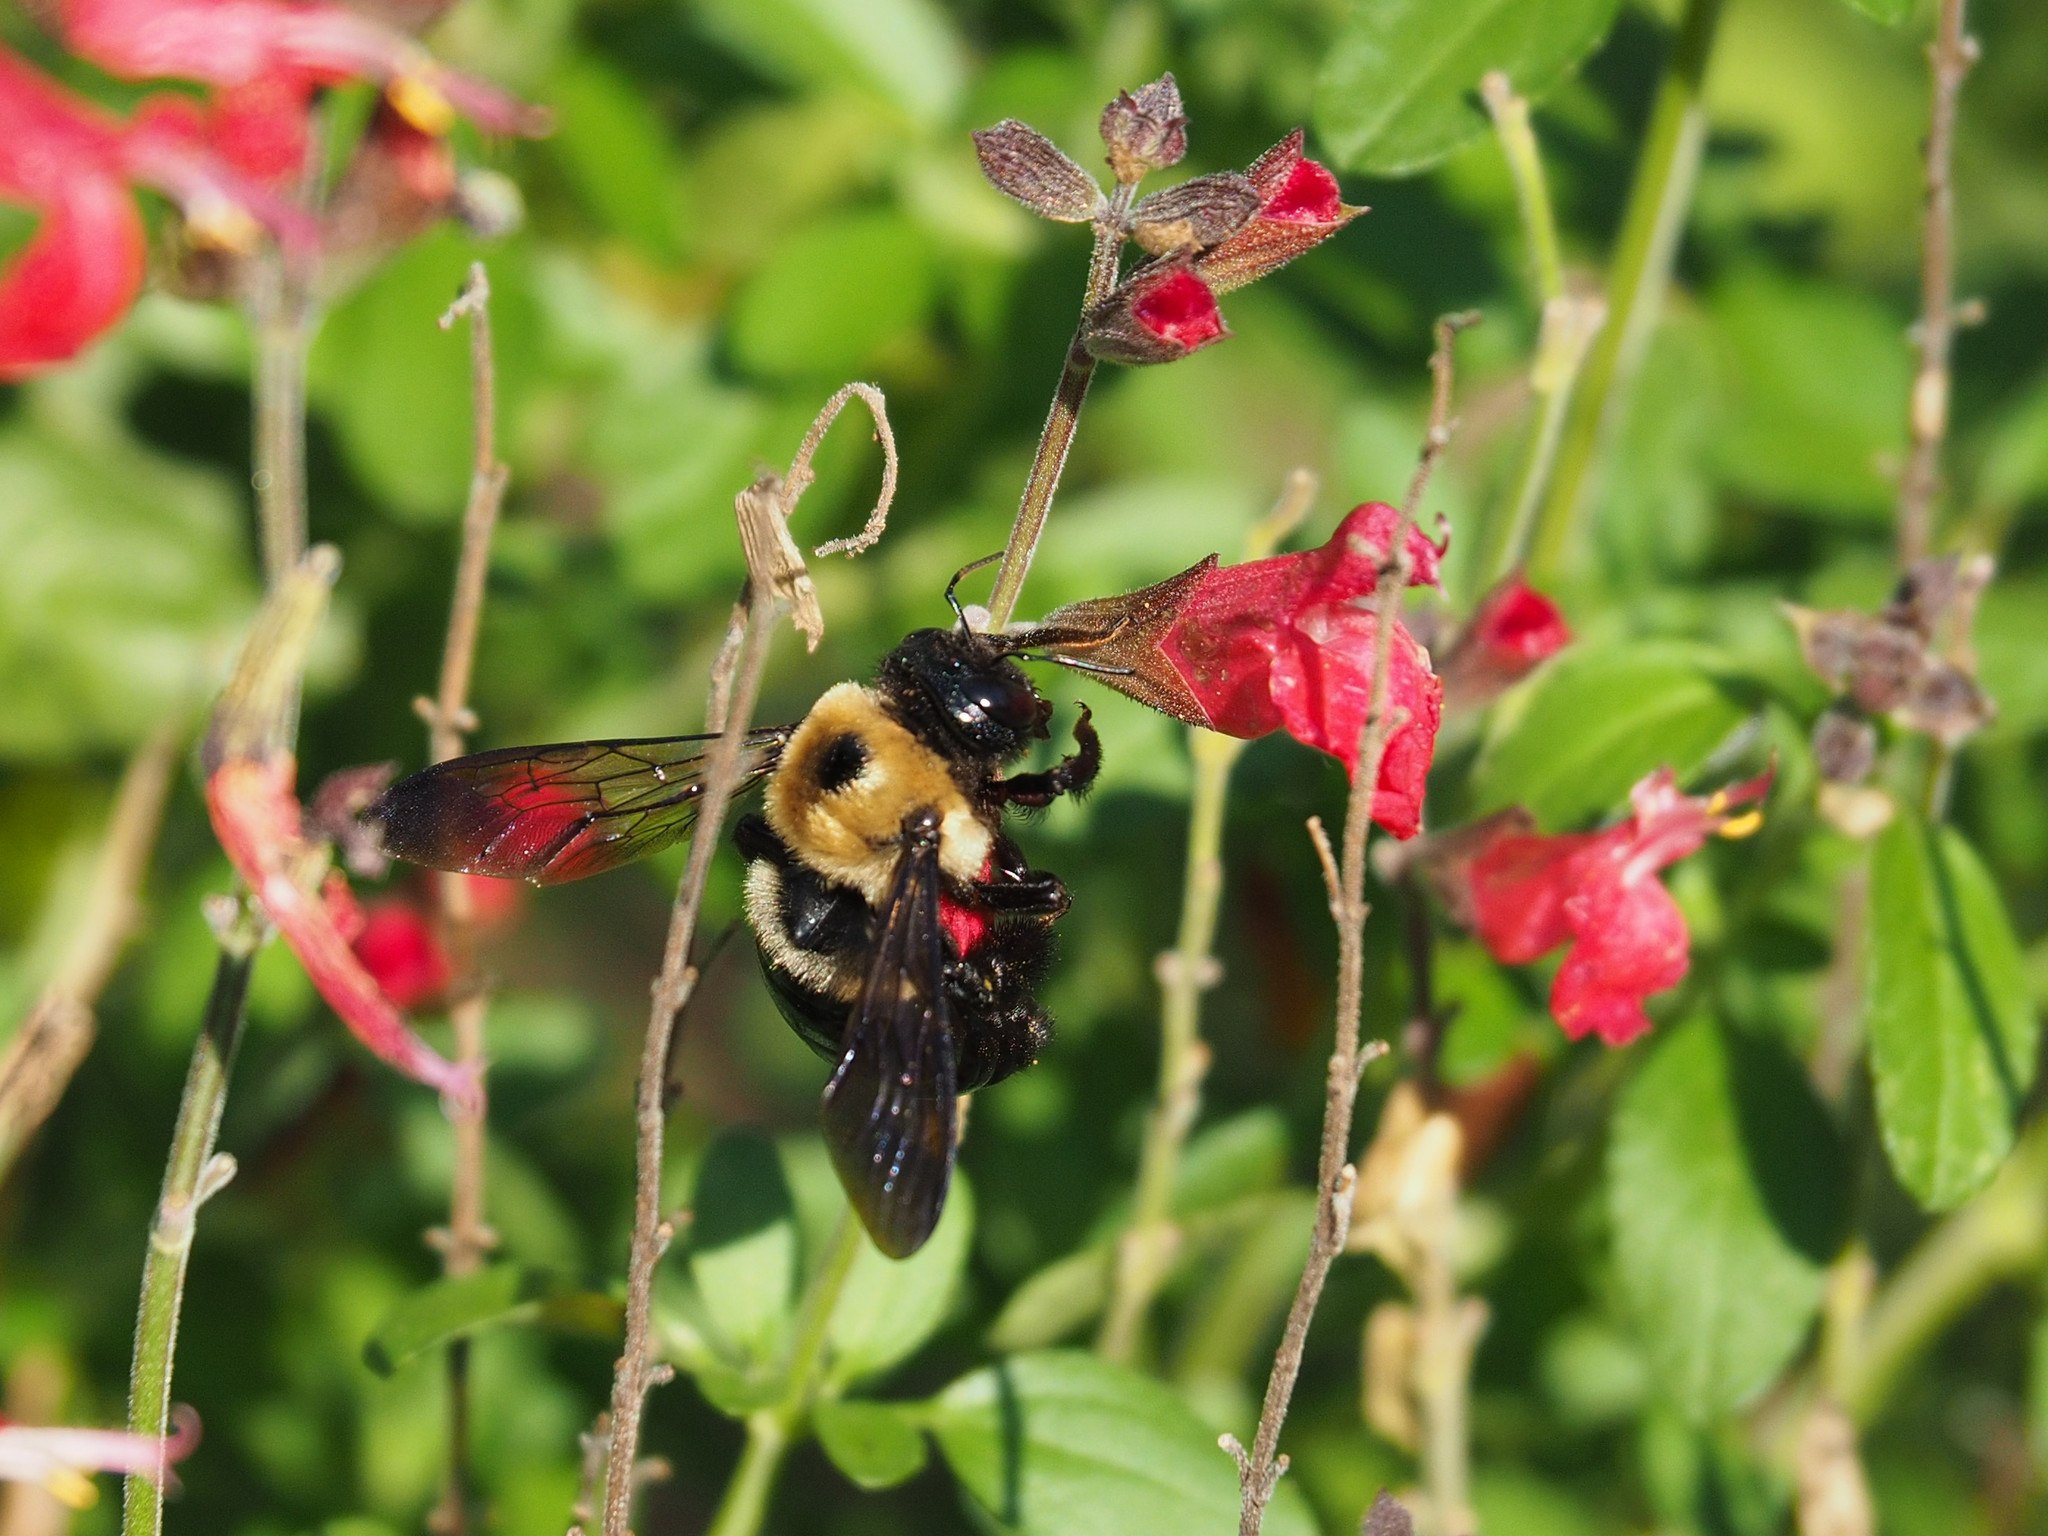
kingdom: Animalia
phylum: Arthropoda
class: Insecta
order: Hymenoptera
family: Apidae
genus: Xylocopa
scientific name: Xylocopa virginica
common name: Carpenter bee
